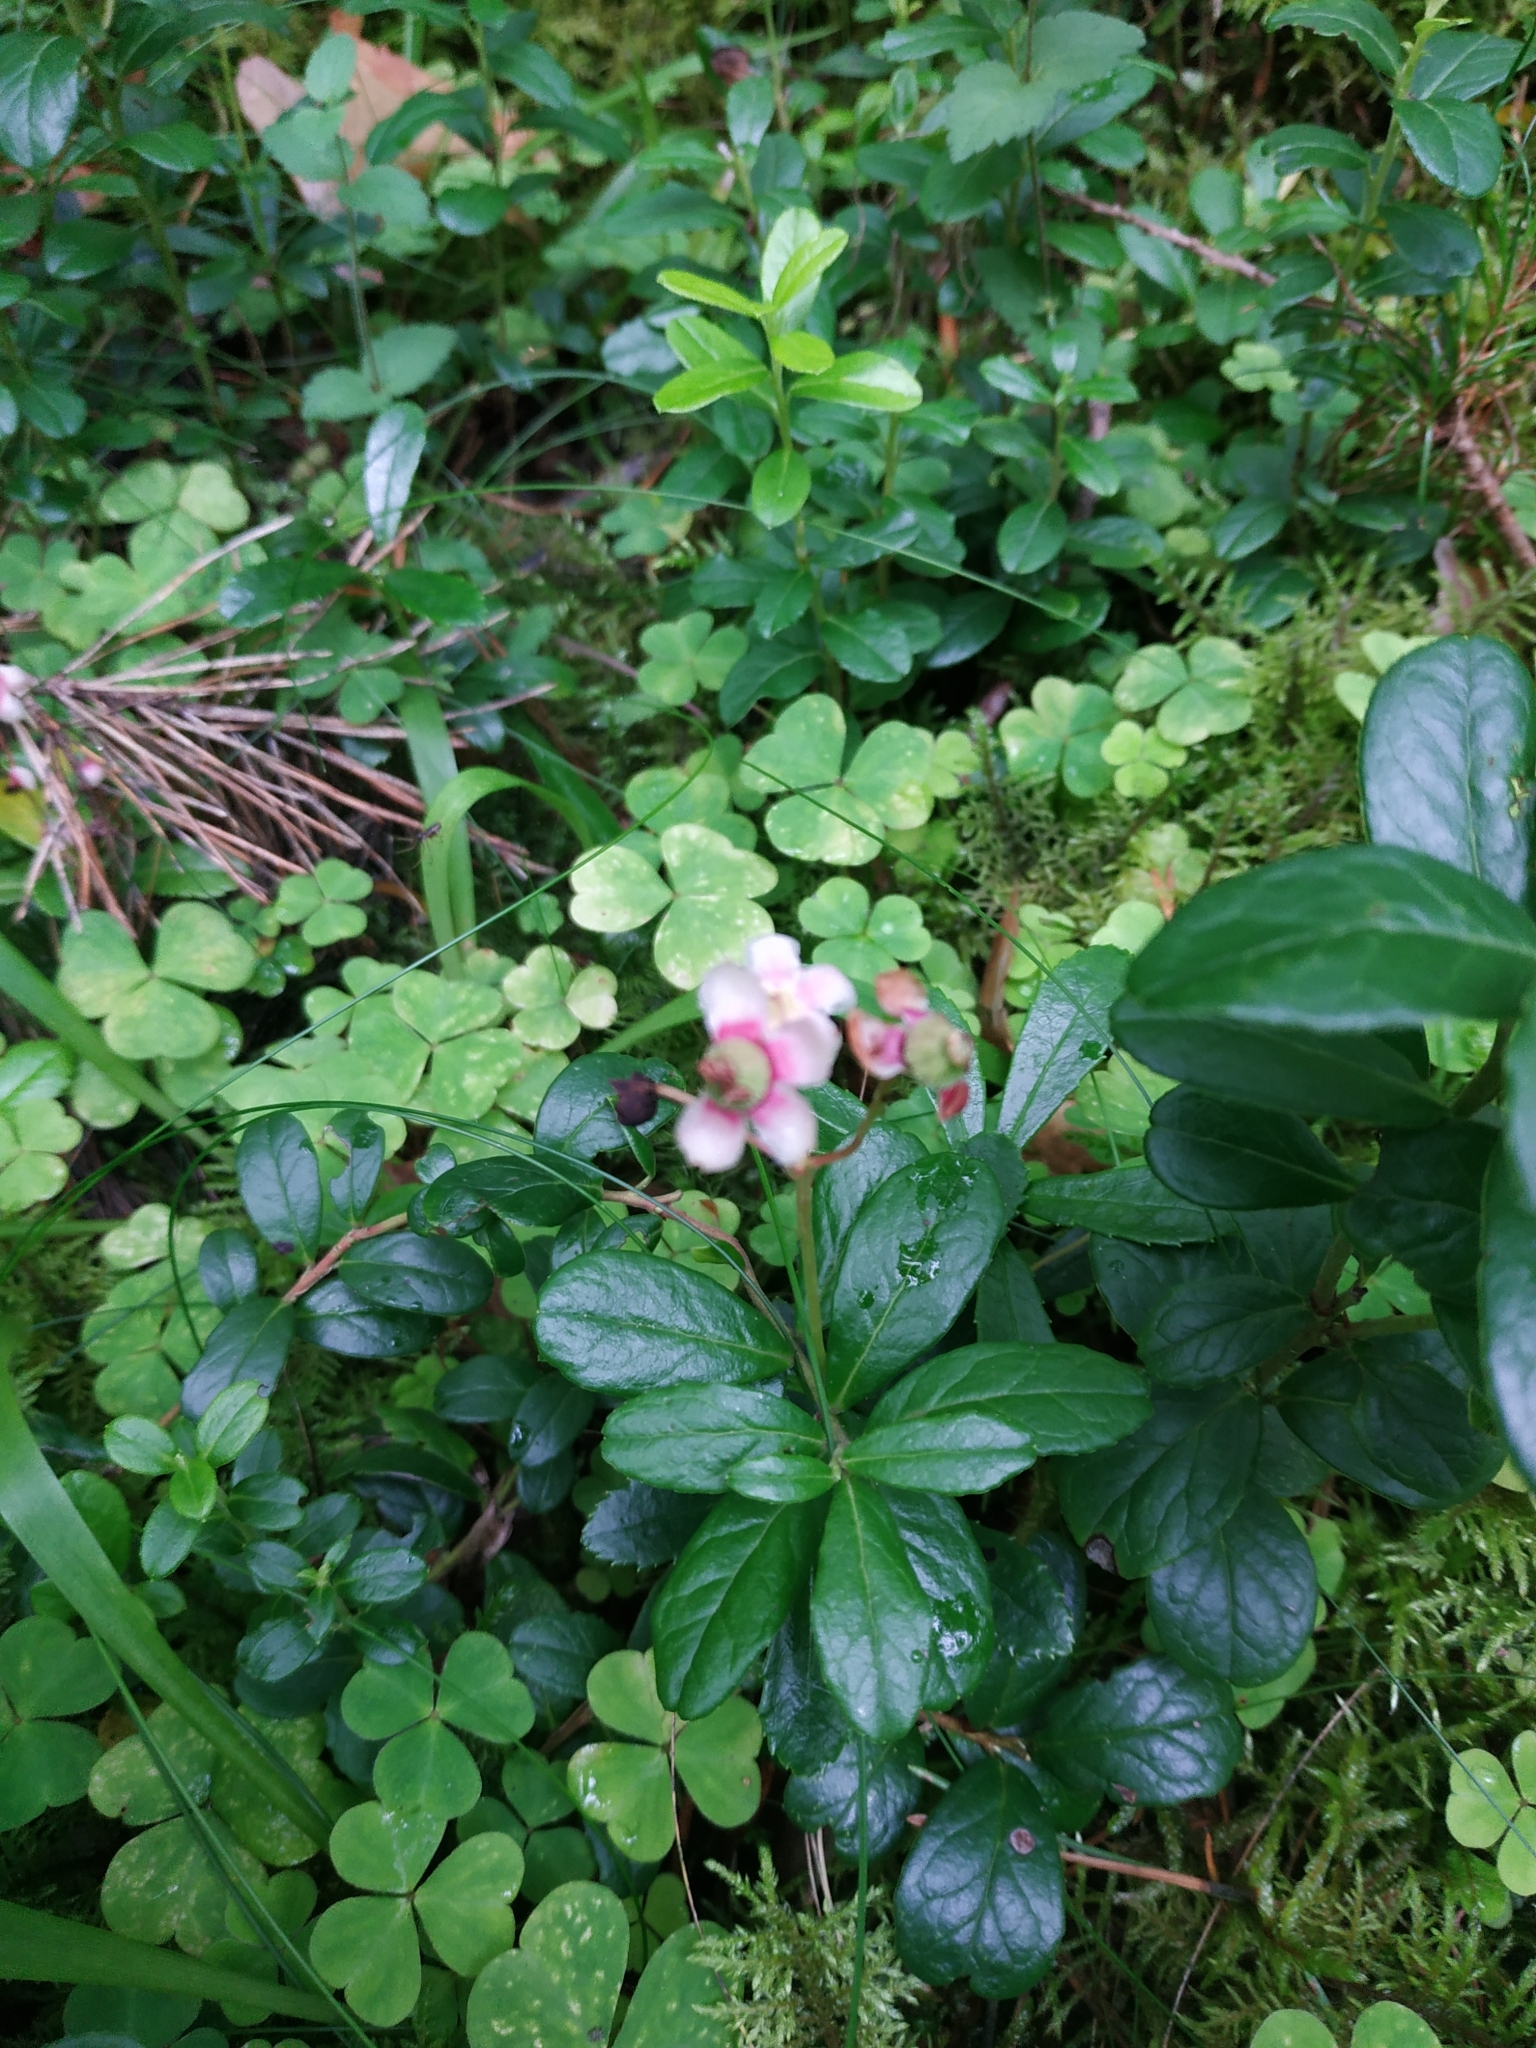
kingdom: Plantae
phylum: Tracheophyta
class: Magnoliopsida
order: Ericales
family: Ericaceae
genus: Vaccinium
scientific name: Vaccinium vitis-idaea
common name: Cowberry
